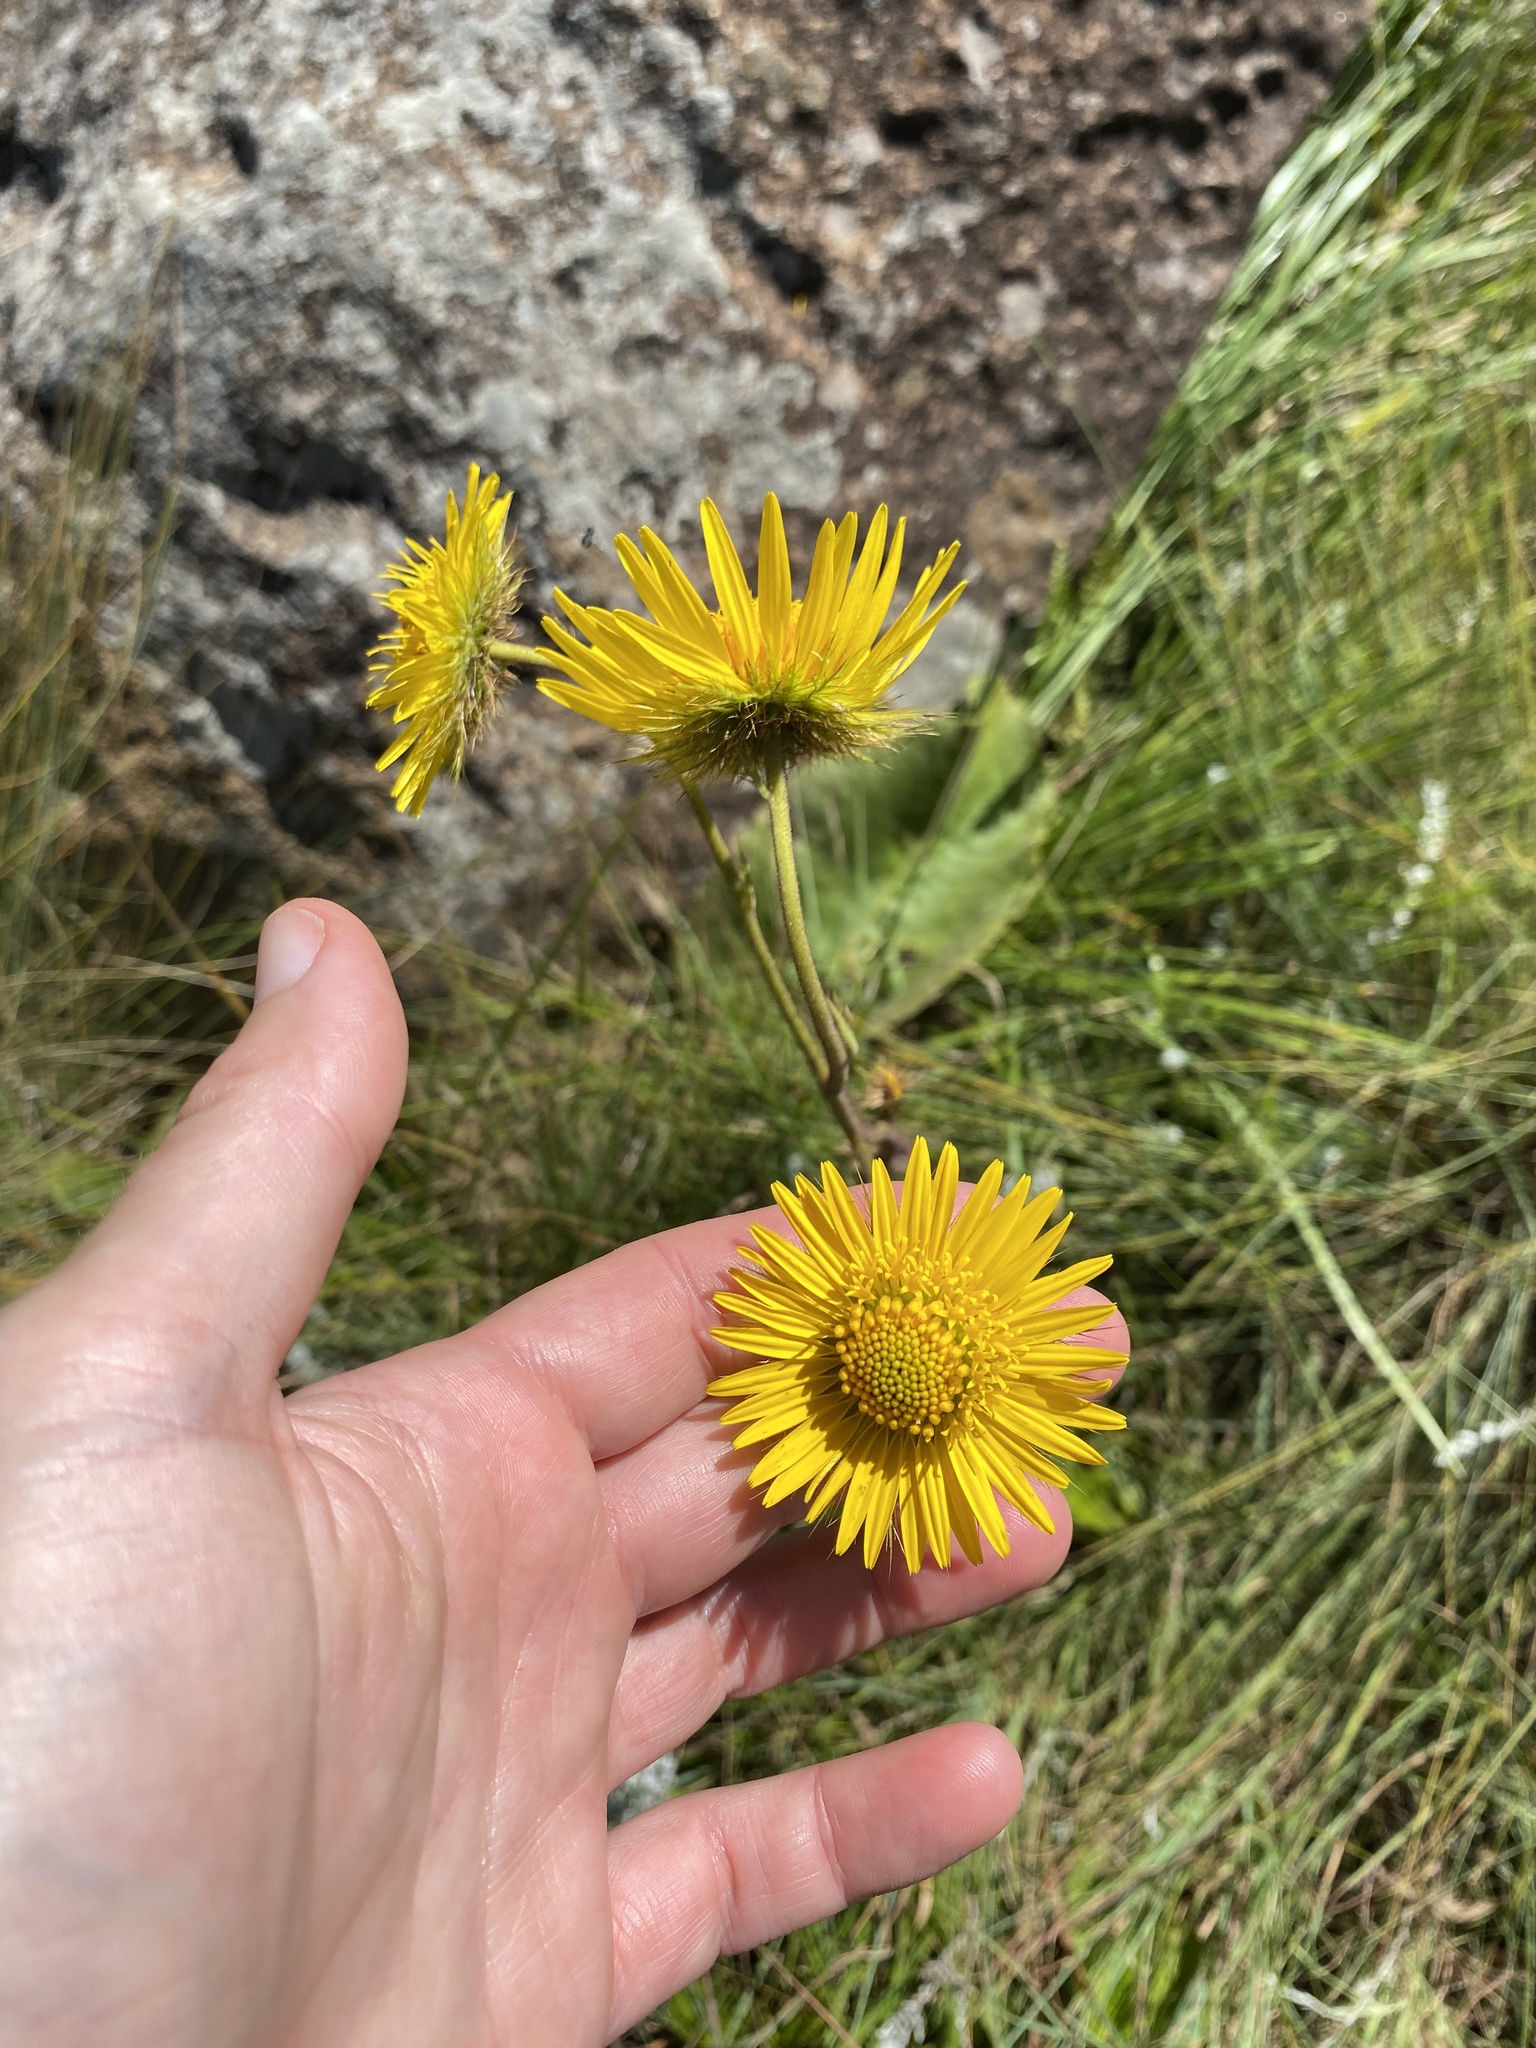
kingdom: Plantae
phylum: Tracheophyta
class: Magnoliopsida
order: Asterales
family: Asteraceae
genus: Berkheya
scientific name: Berkheya speciosa
